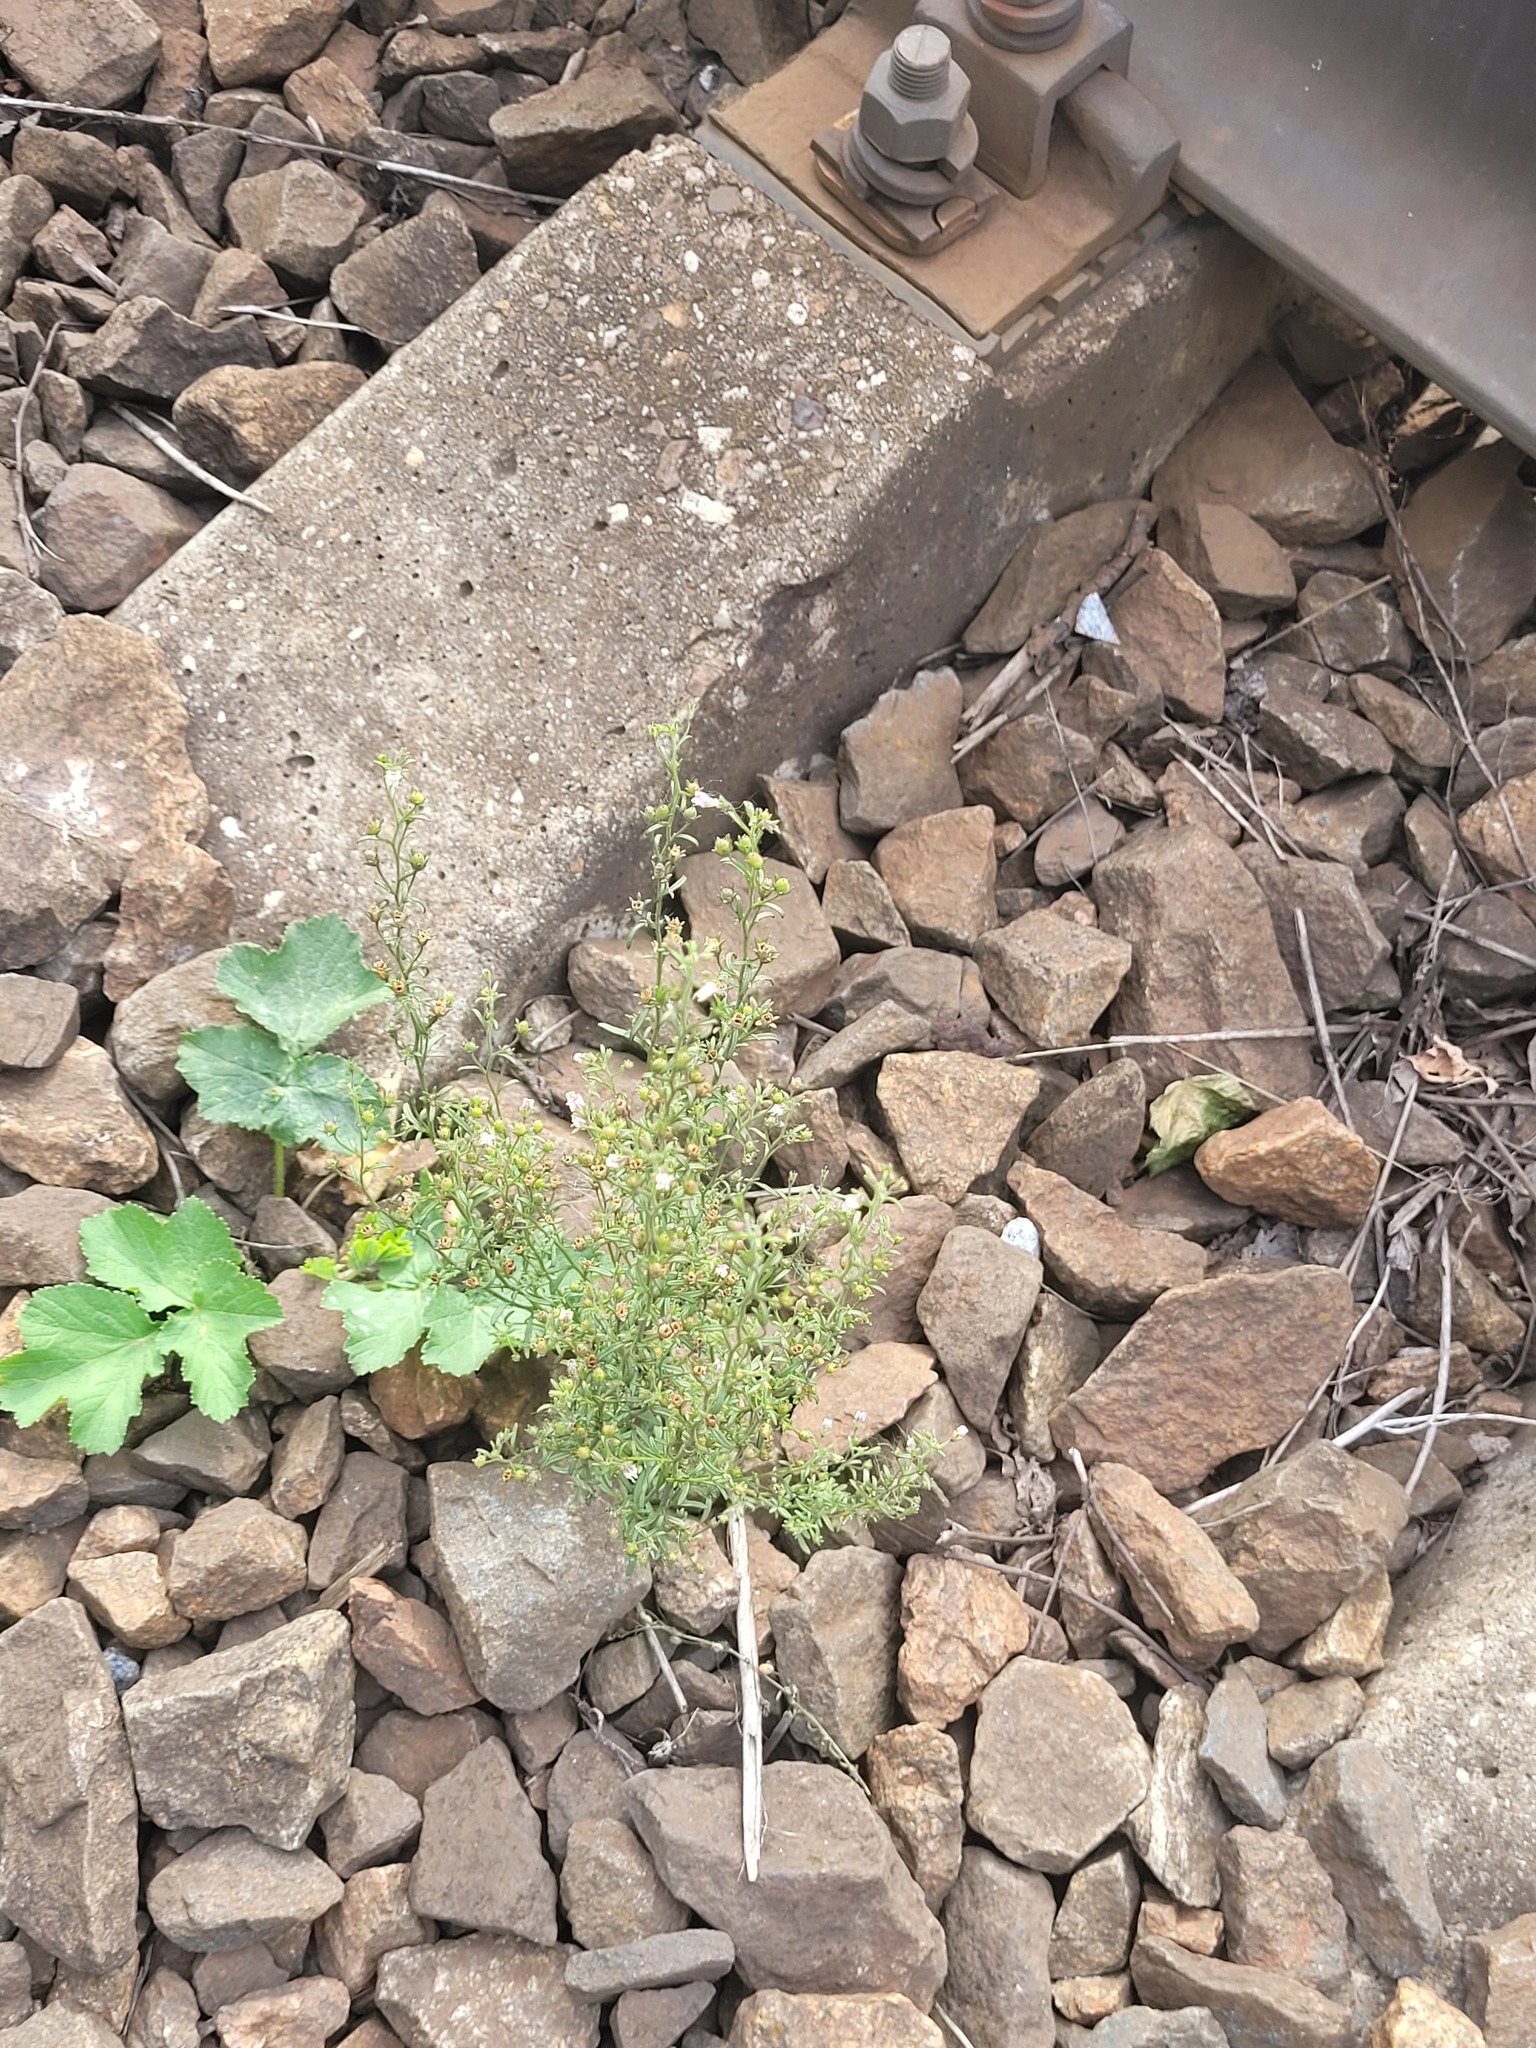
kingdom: Plantae
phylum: Tracheophyta
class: Magnoliopsida
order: Lamiales
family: Plantaginaceae
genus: Chaenorhinum
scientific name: Chaenorhinum minus
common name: Dwarf snapdragon
